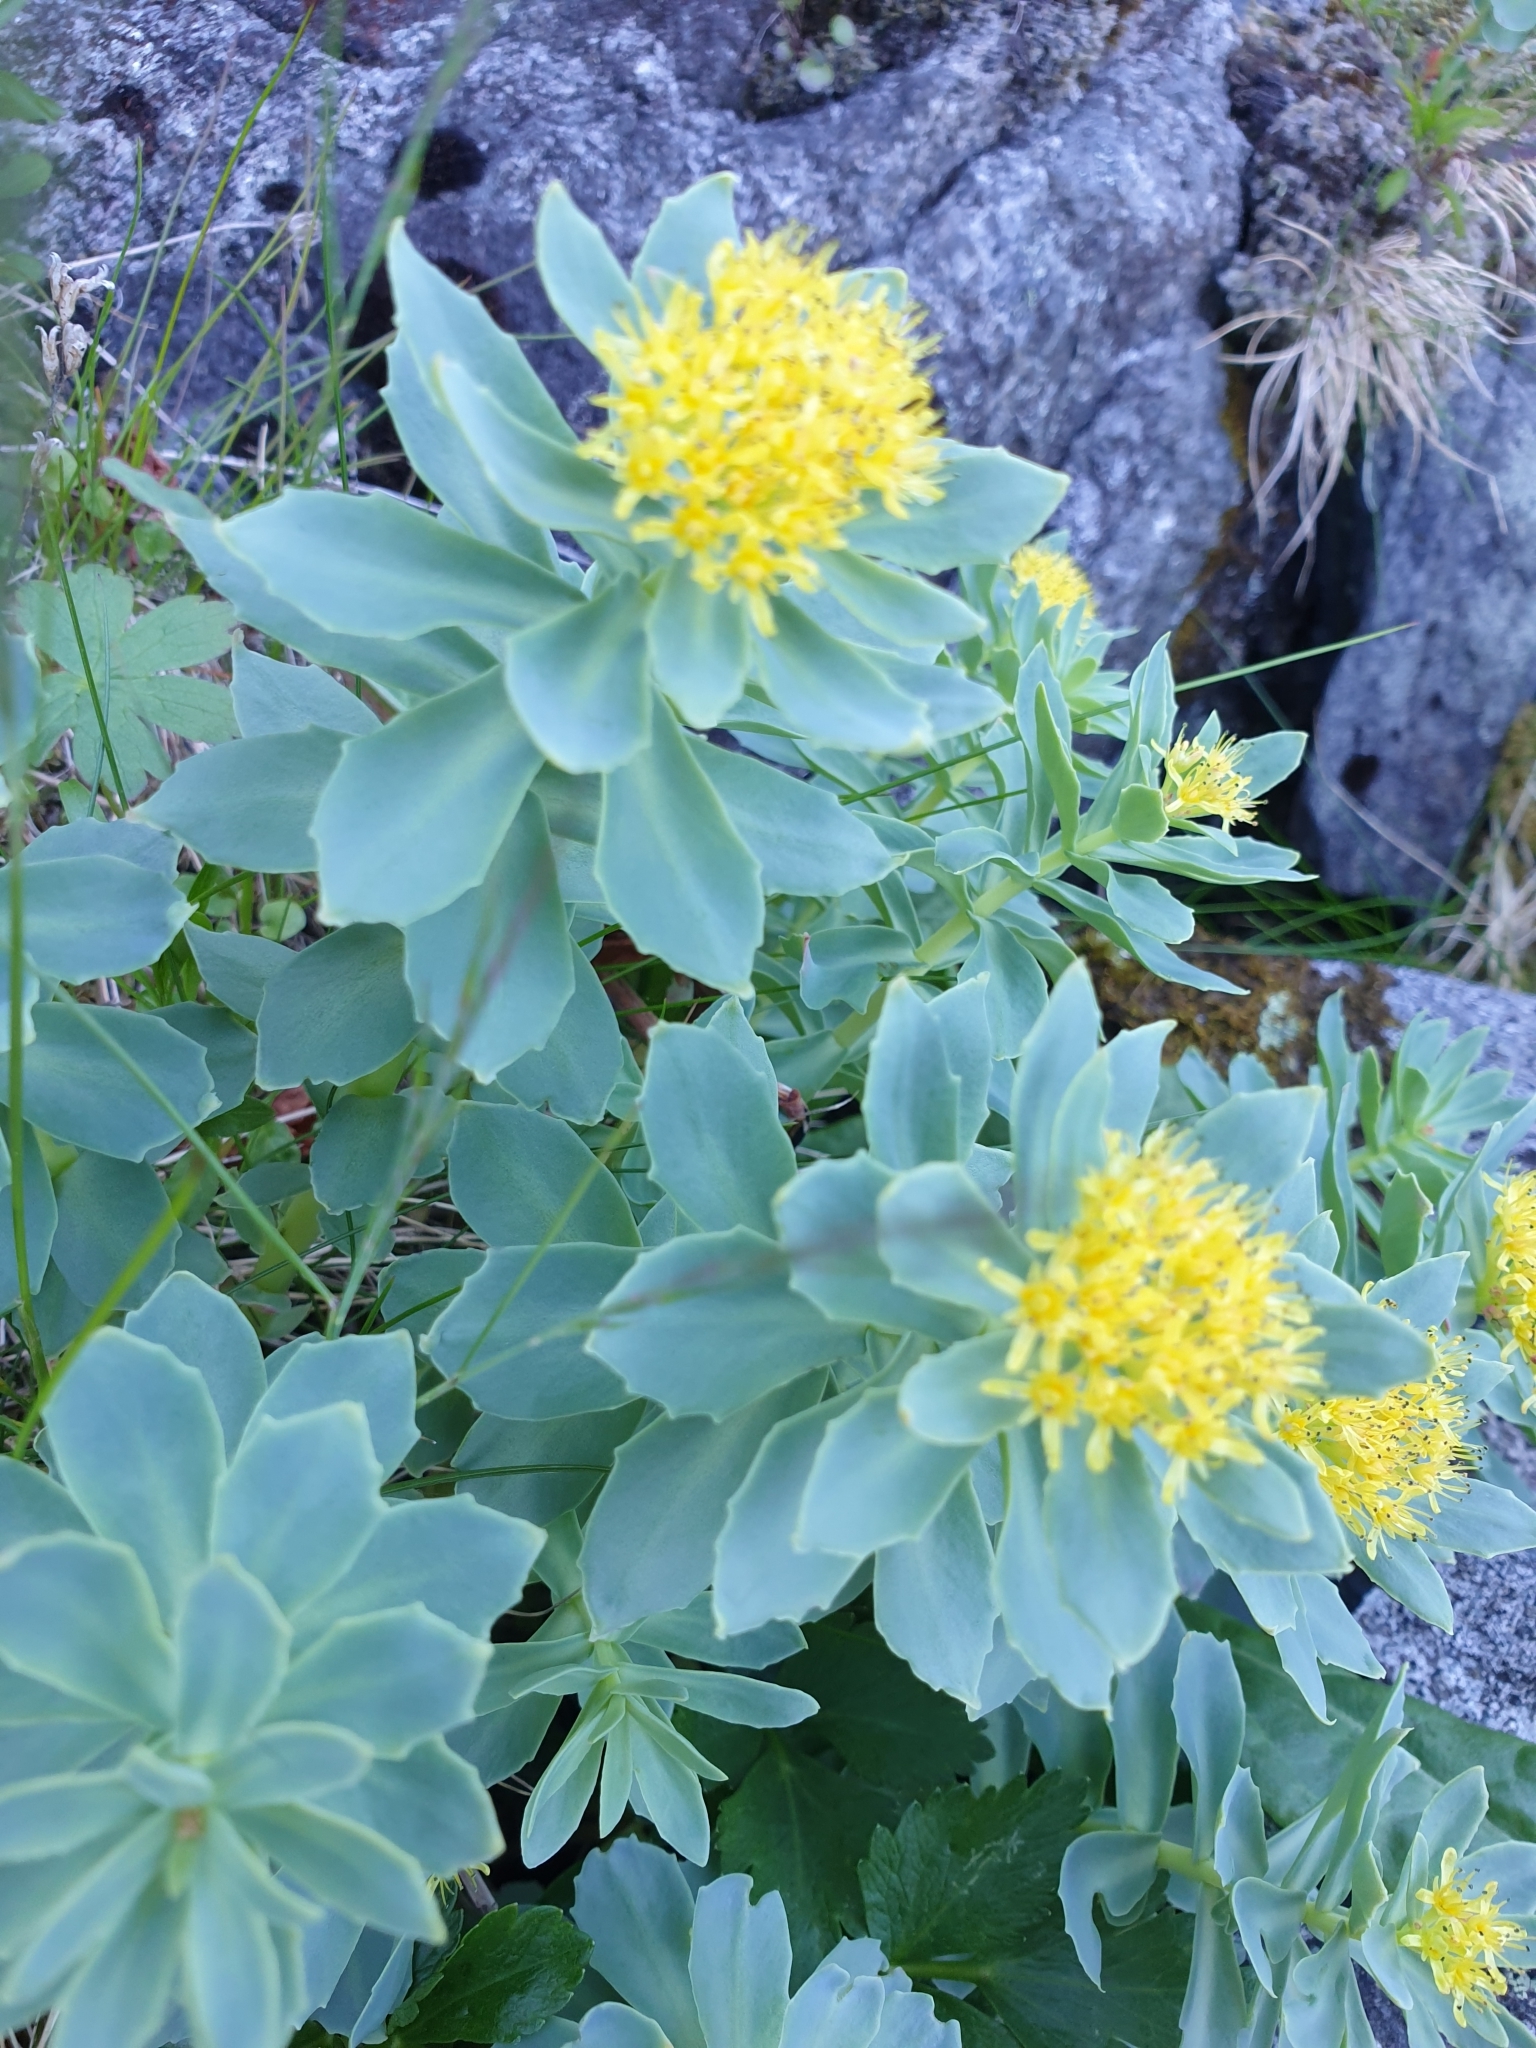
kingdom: Plantae
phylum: Tracheophyta
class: Magnoliopsida
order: Saxifragales
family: Crassulaceae
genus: Rhodiola
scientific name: Rhodiola rosea
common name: Roseroot
